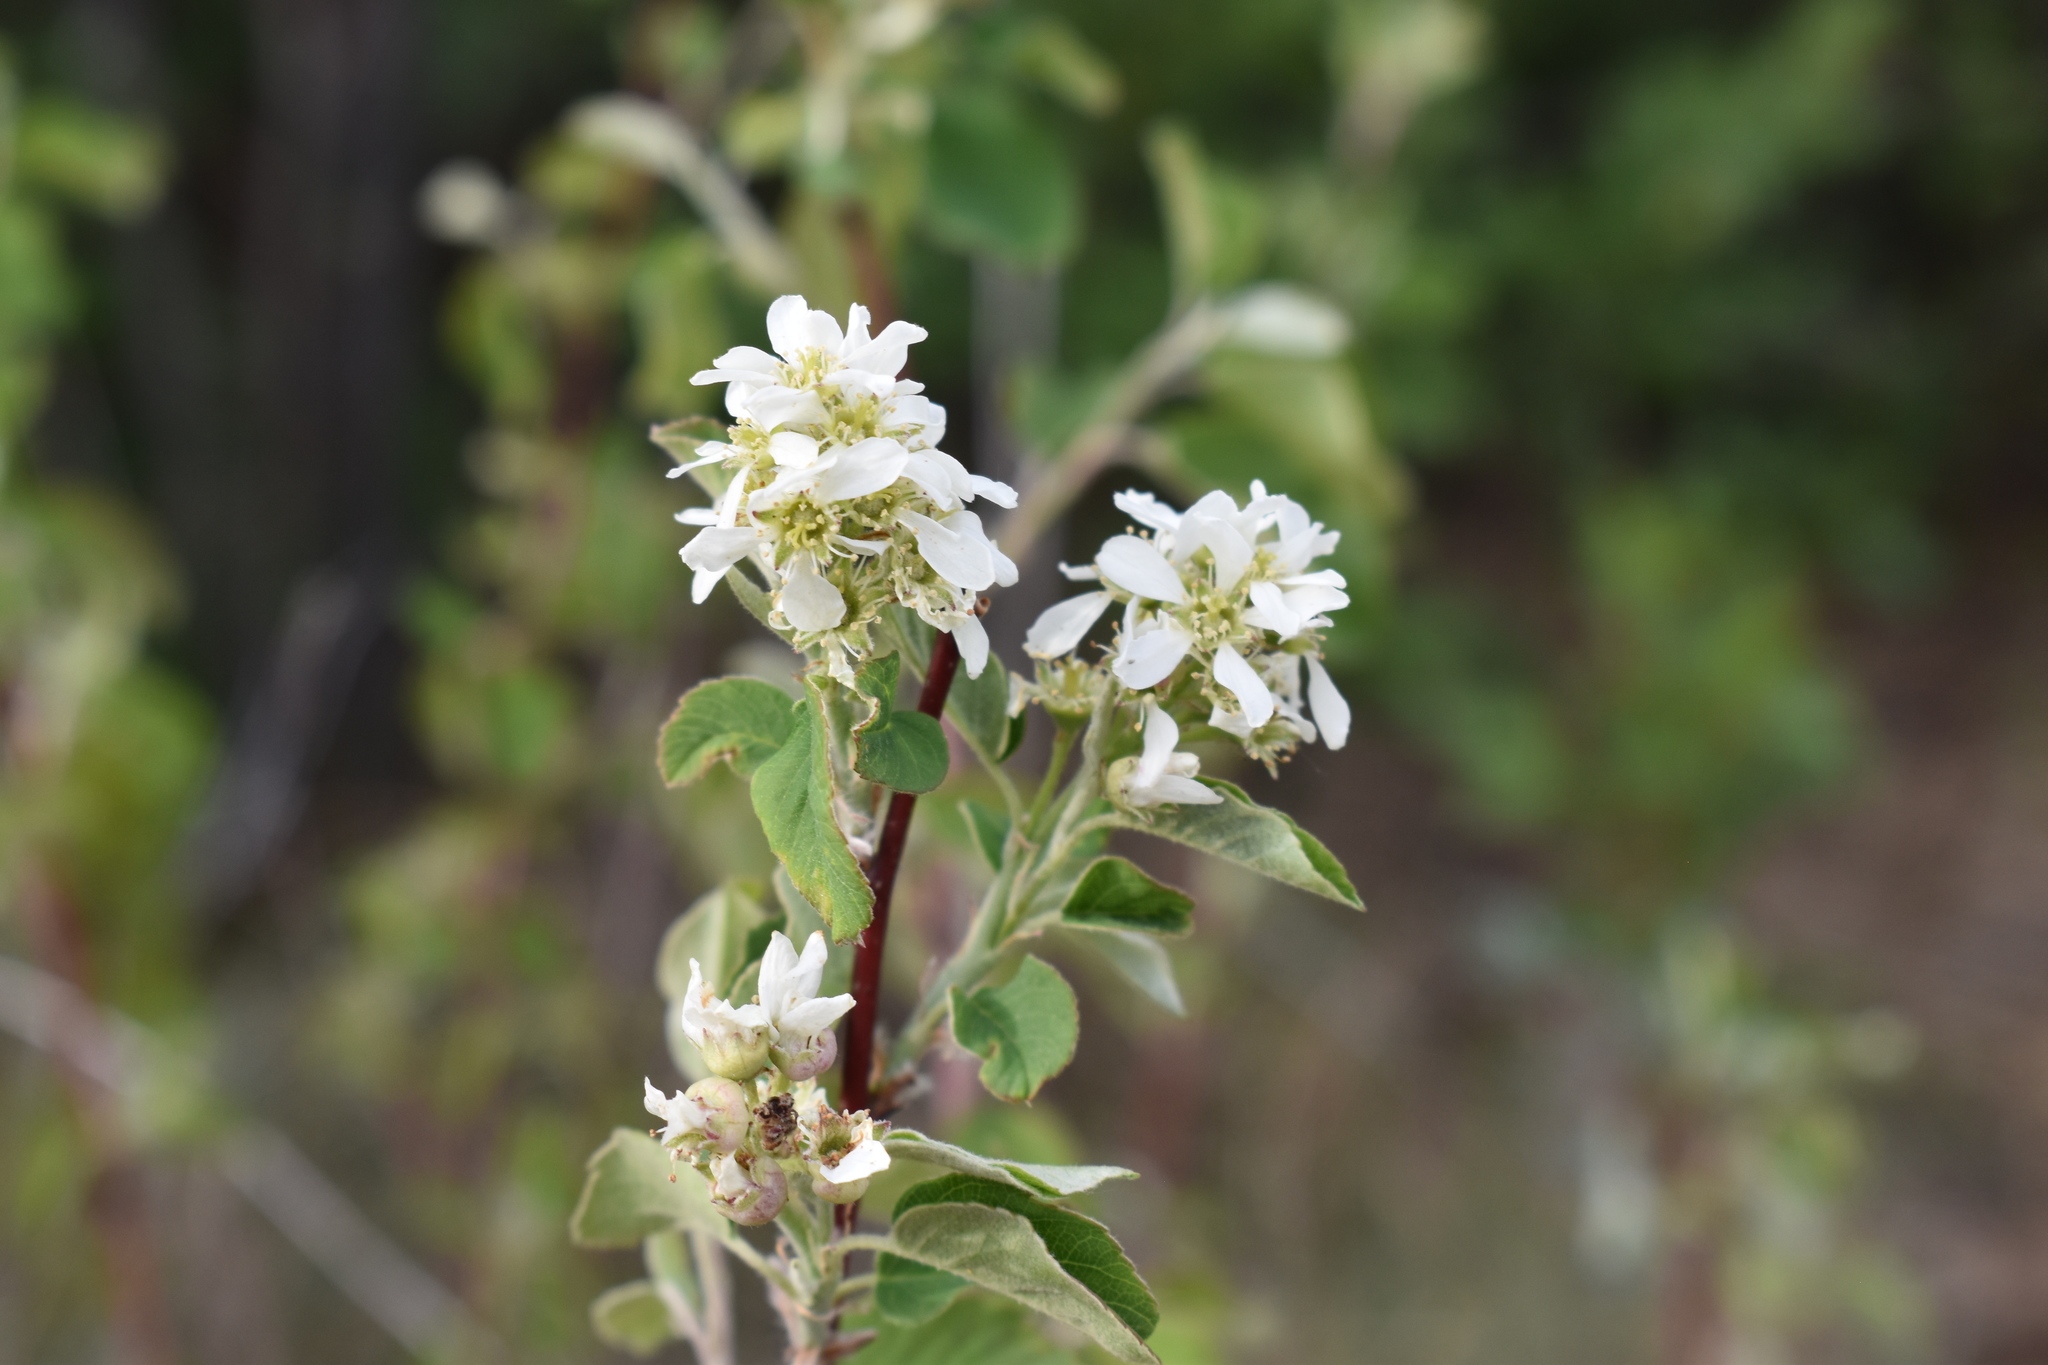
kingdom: Plantae
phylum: Tracheophyta
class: Magnoliopsida
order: Rosales
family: Rosaceae
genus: Amelanchier
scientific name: Amelanchier alnifolia
